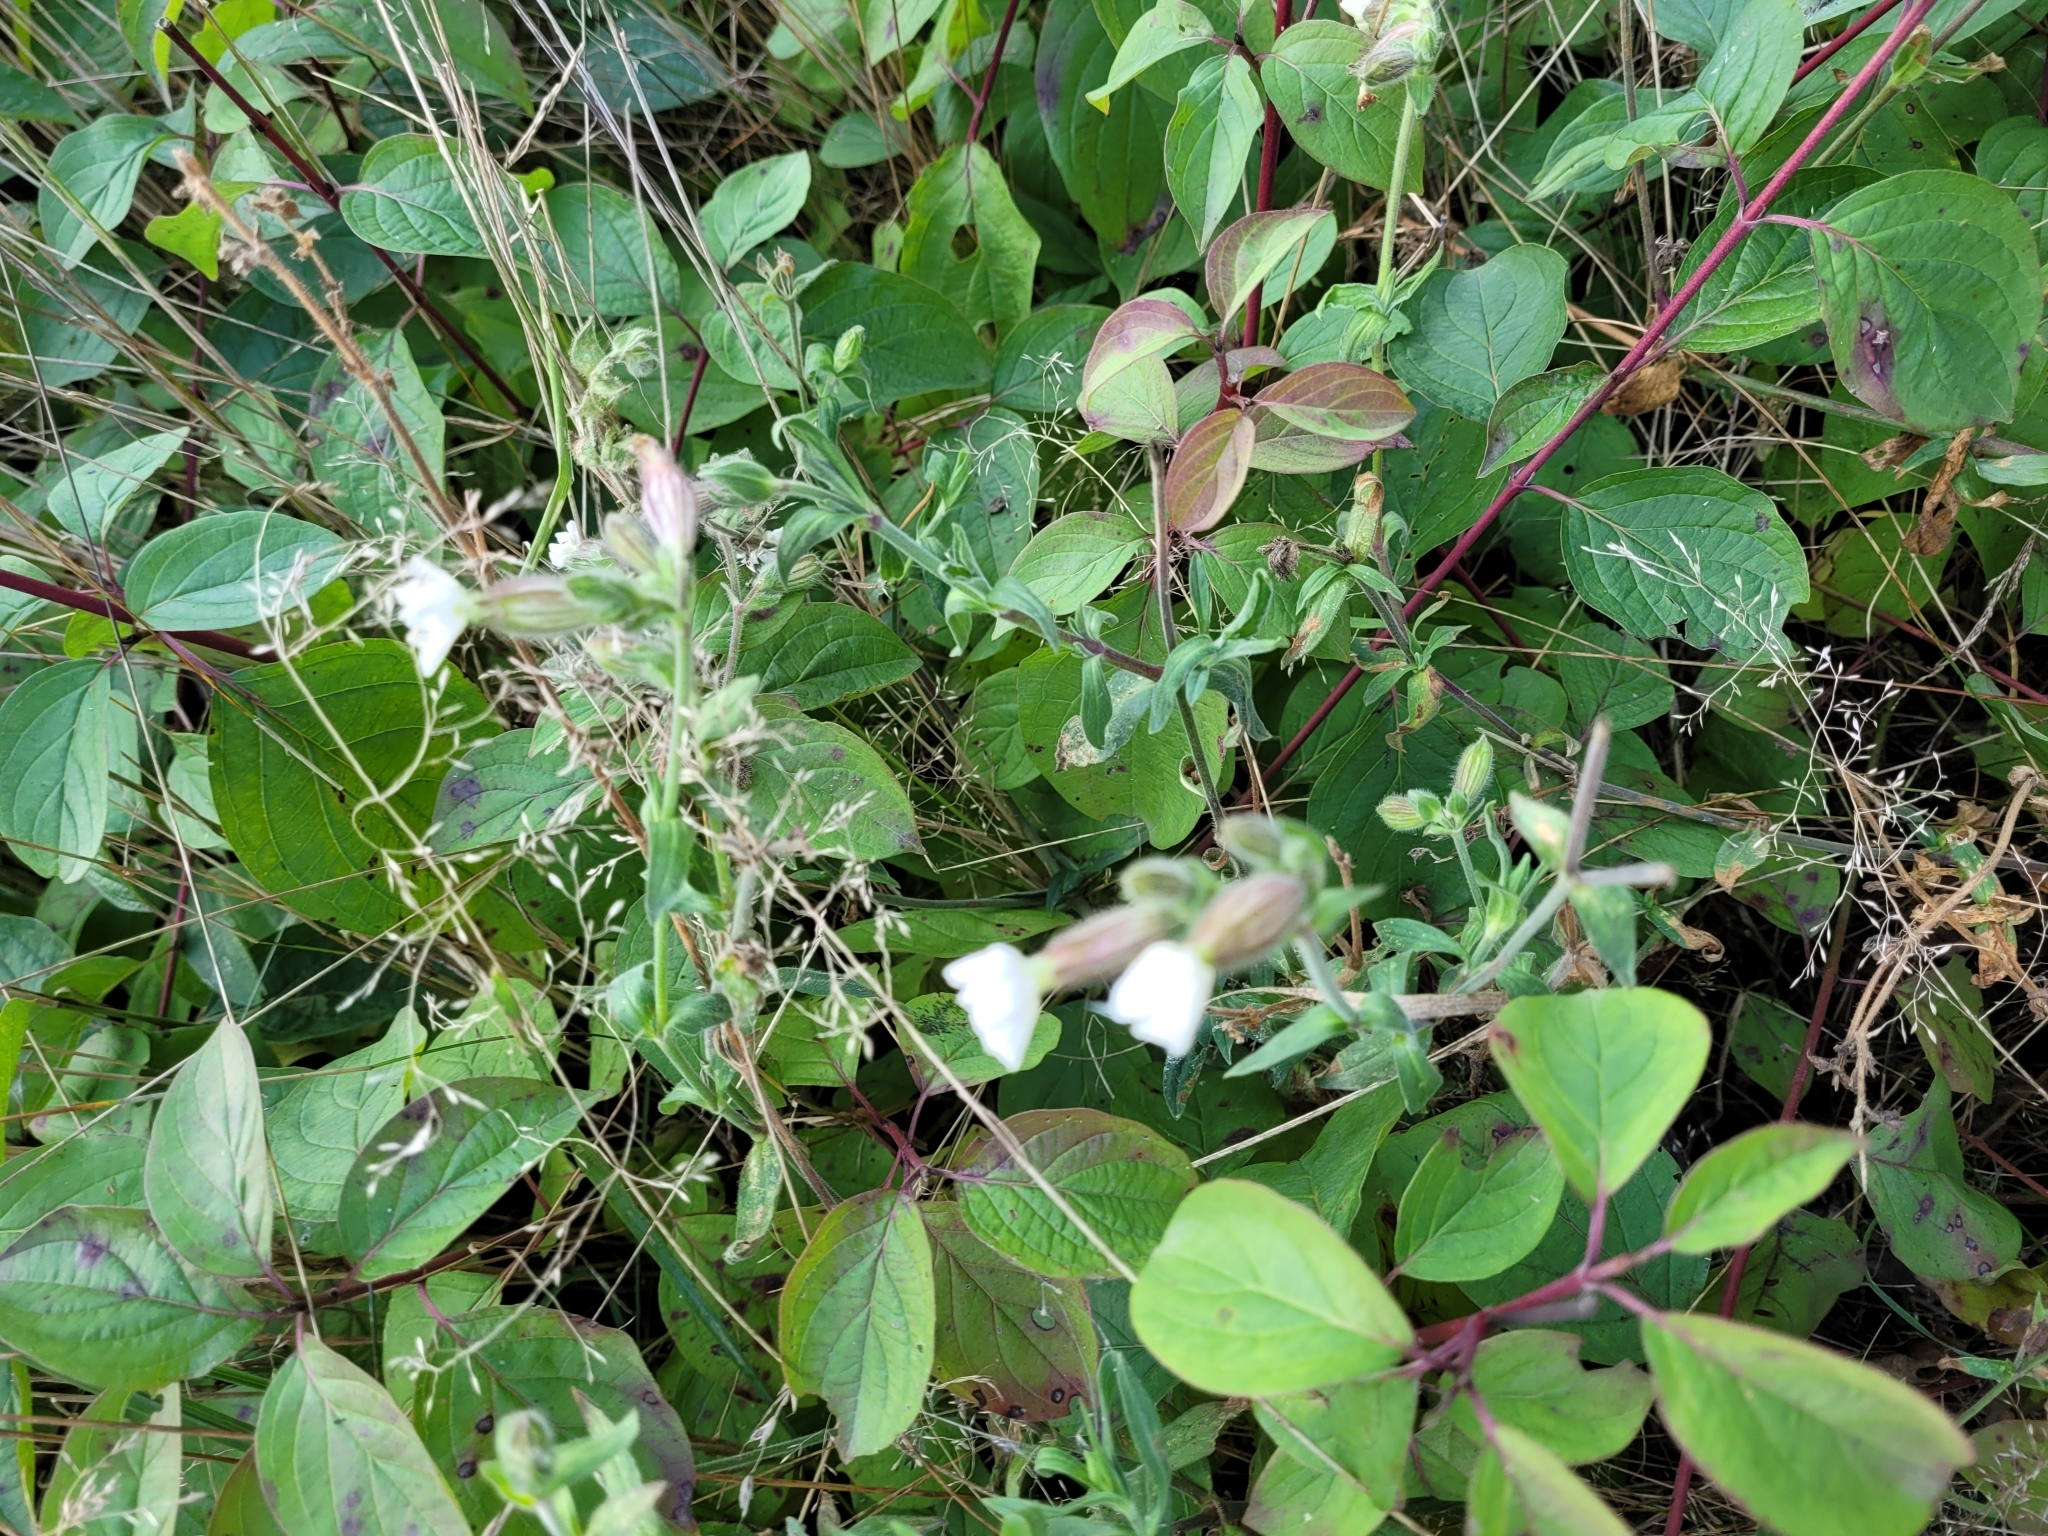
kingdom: Plantae
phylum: Tracheophyta
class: Magnoliopsida
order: Caryophyllales
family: Caryophyllaceae
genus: Silene
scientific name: Silene latifolia
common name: White campion
